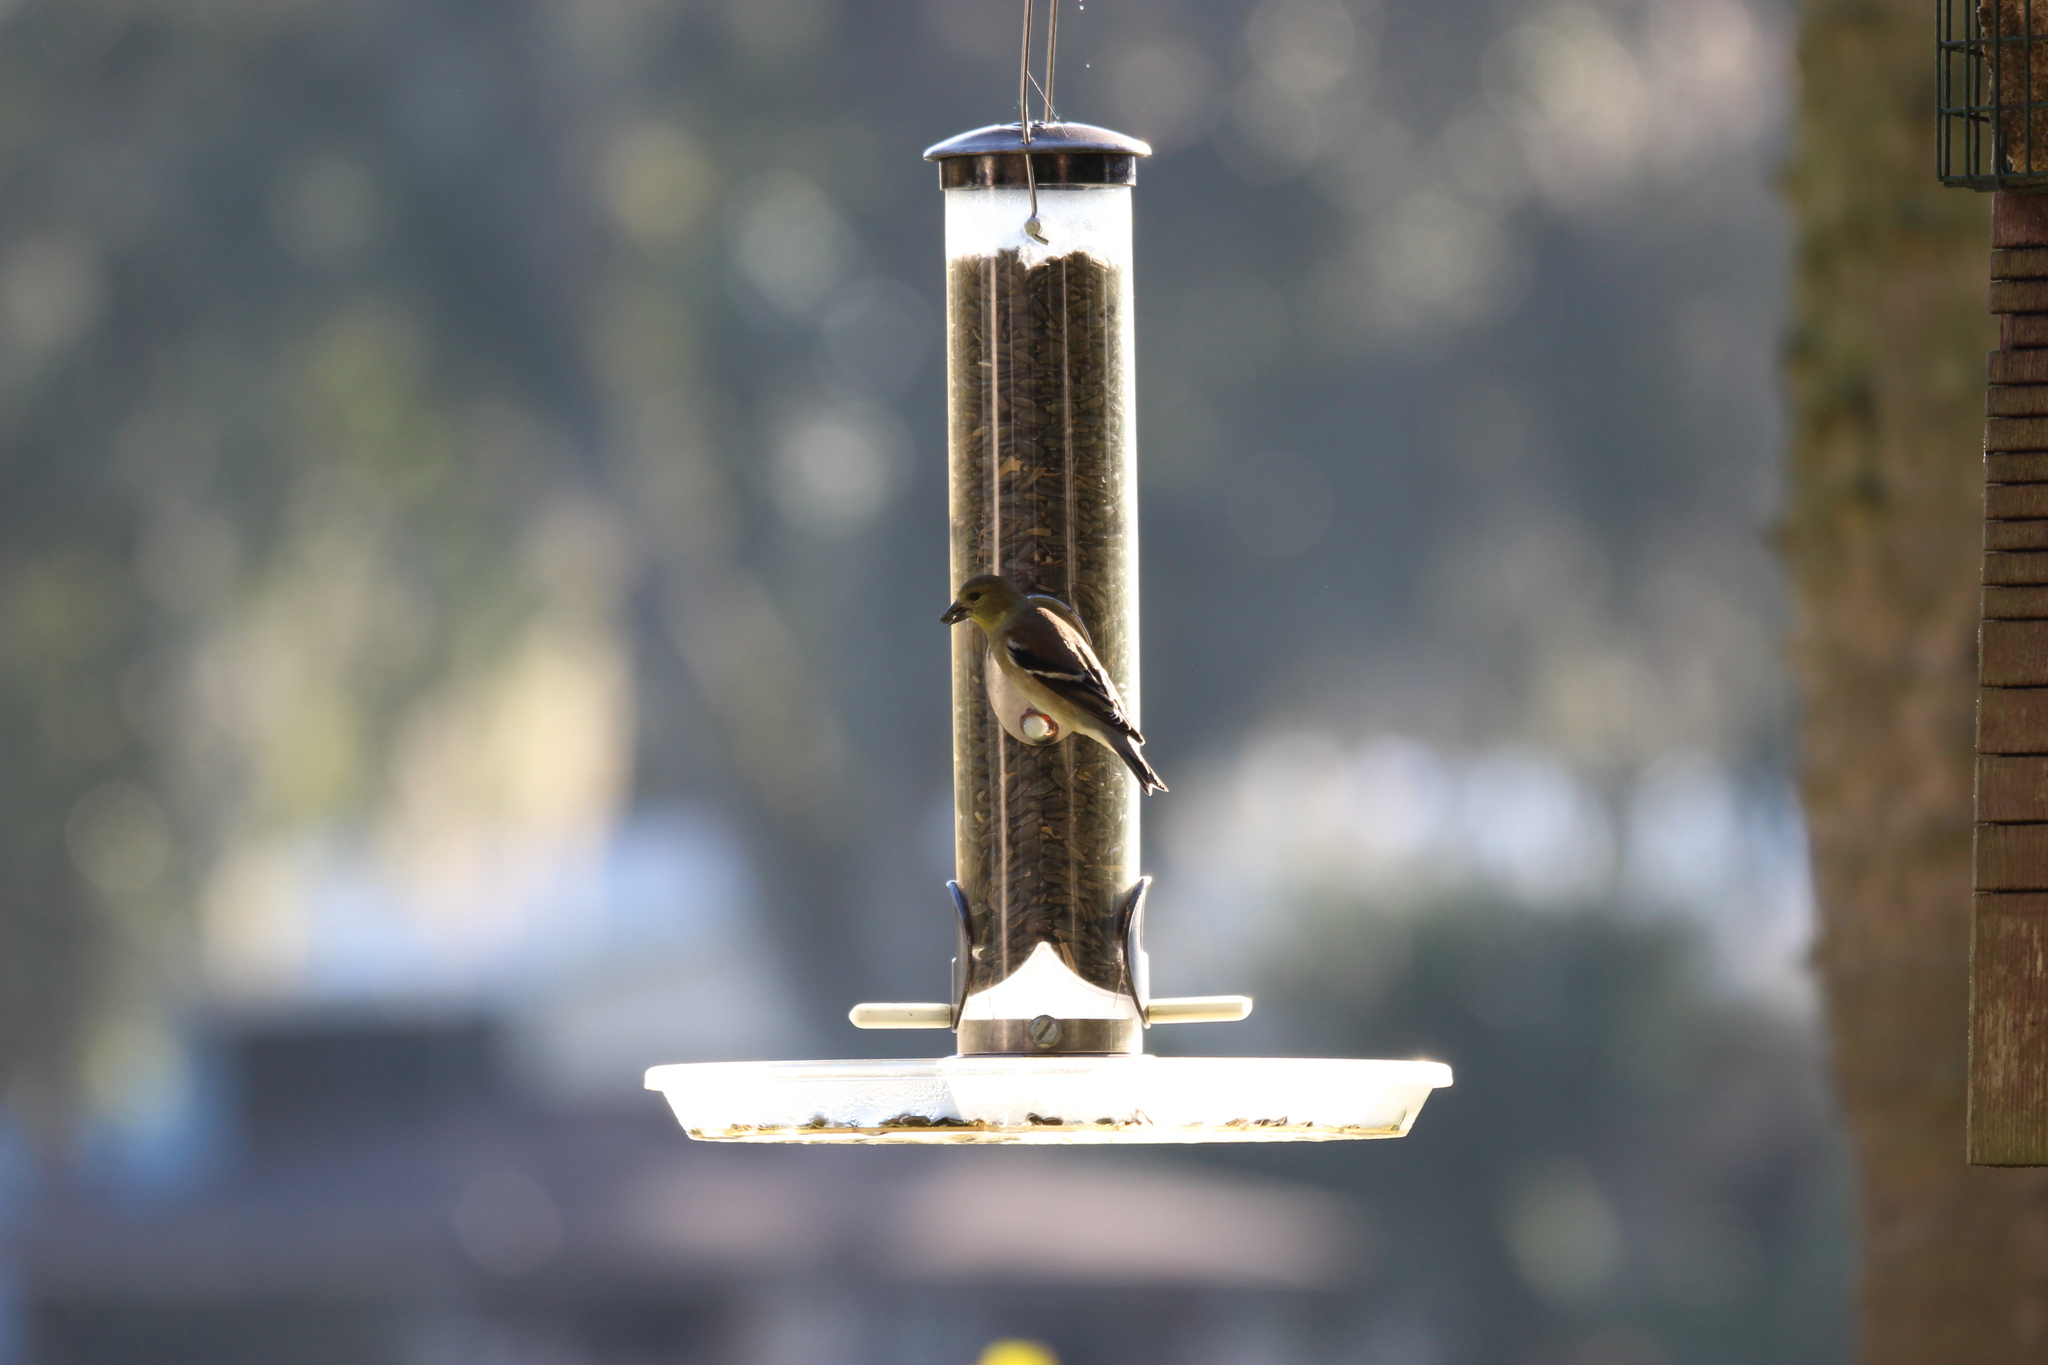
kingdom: Animalia
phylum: Chordata
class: Aves
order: Passeriformes
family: Fringillidae
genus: Spinus
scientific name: Spinus tristis
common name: American goldfinch
